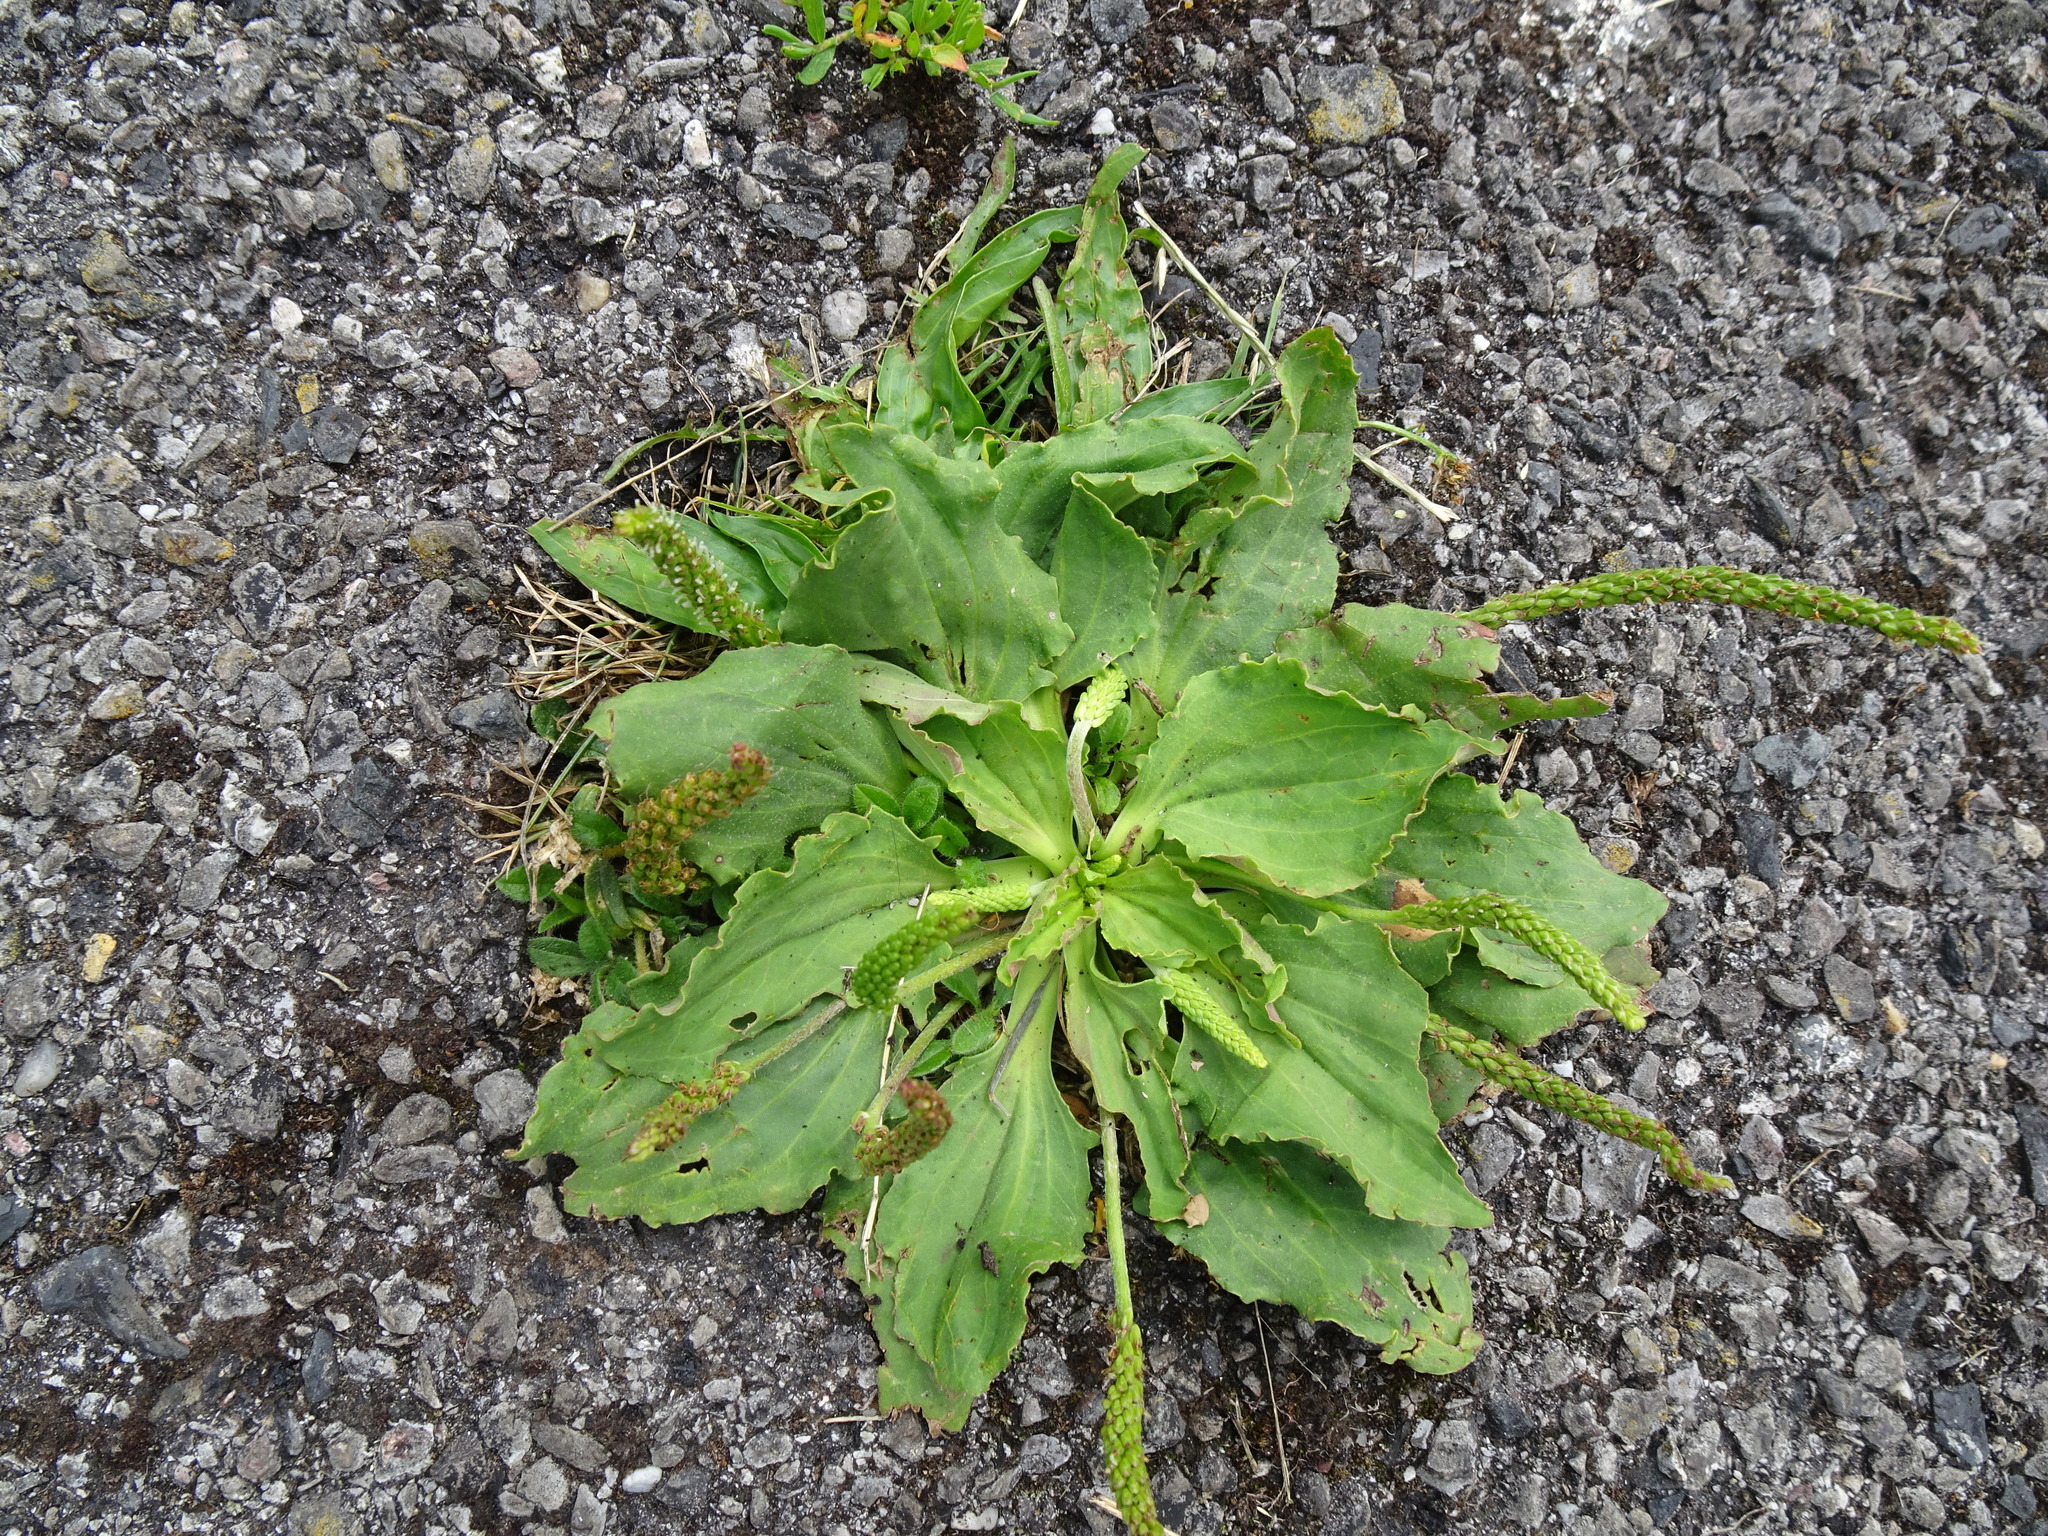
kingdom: Plantae
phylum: Tracheophyta
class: Magnoliopsida
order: Lamiales
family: Plantaginaceae
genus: Plantago
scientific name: Plantago major
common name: Common plantain
